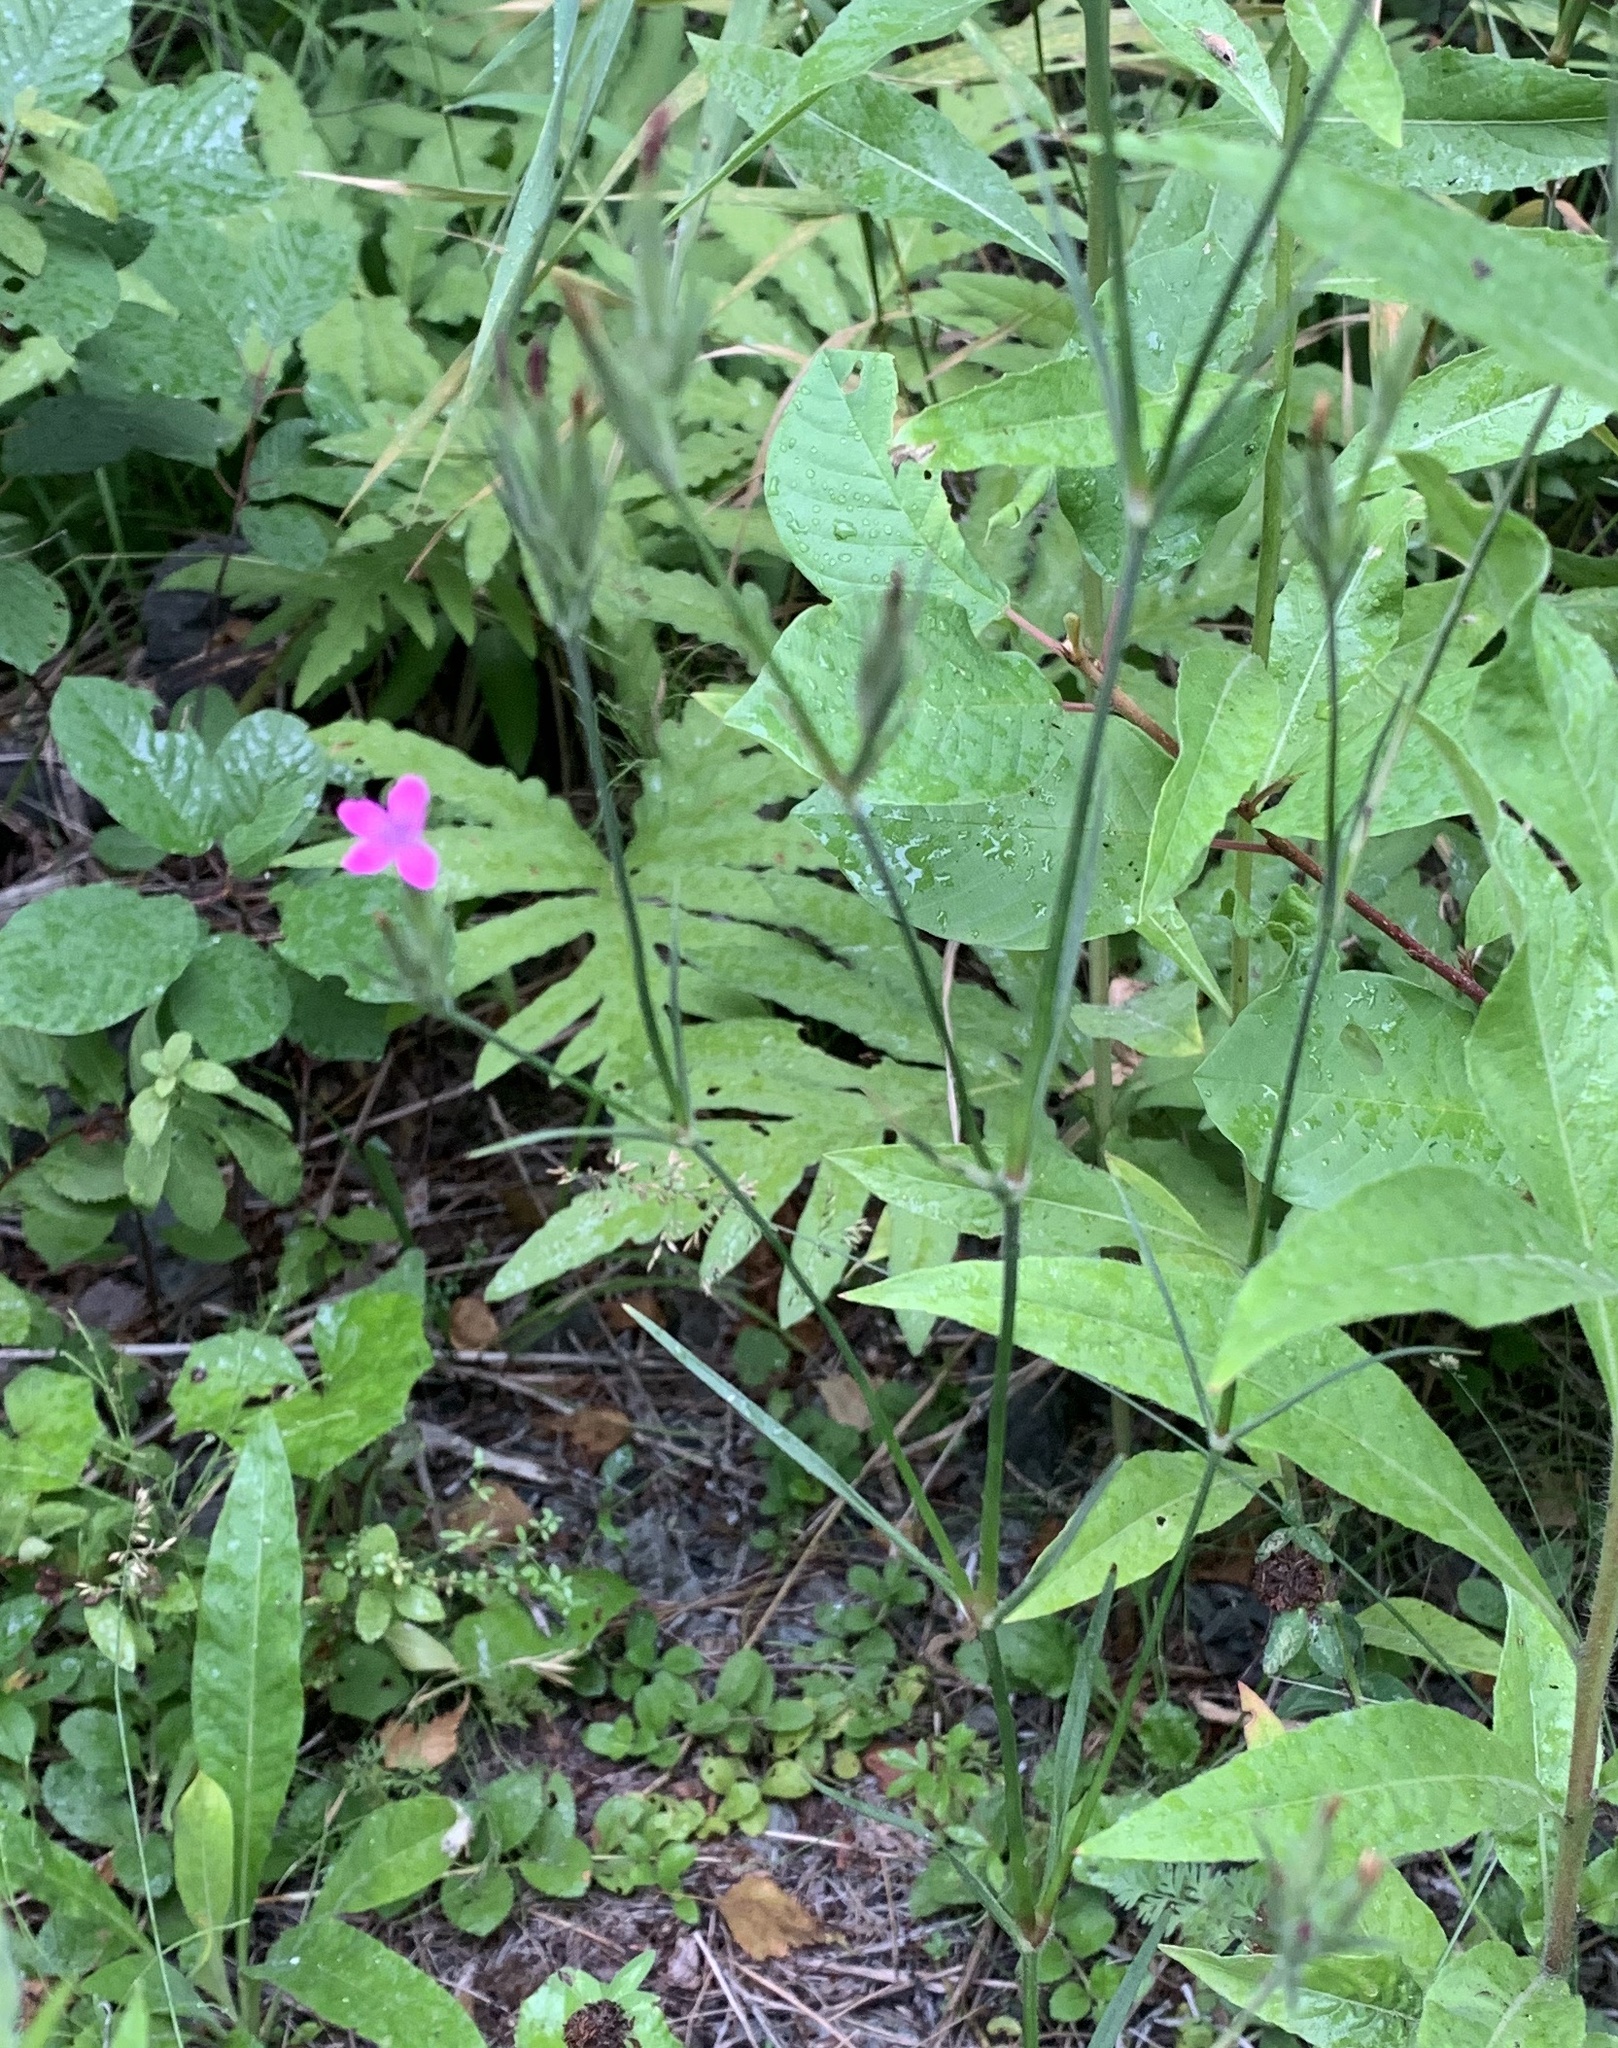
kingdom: Plantae
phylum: Tracheophyta
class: Magnoliopsida
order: Caryophyllales
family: Caryophyllaceae
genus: Dianthus
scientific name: Dianthus armeria
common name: Deptford pink
